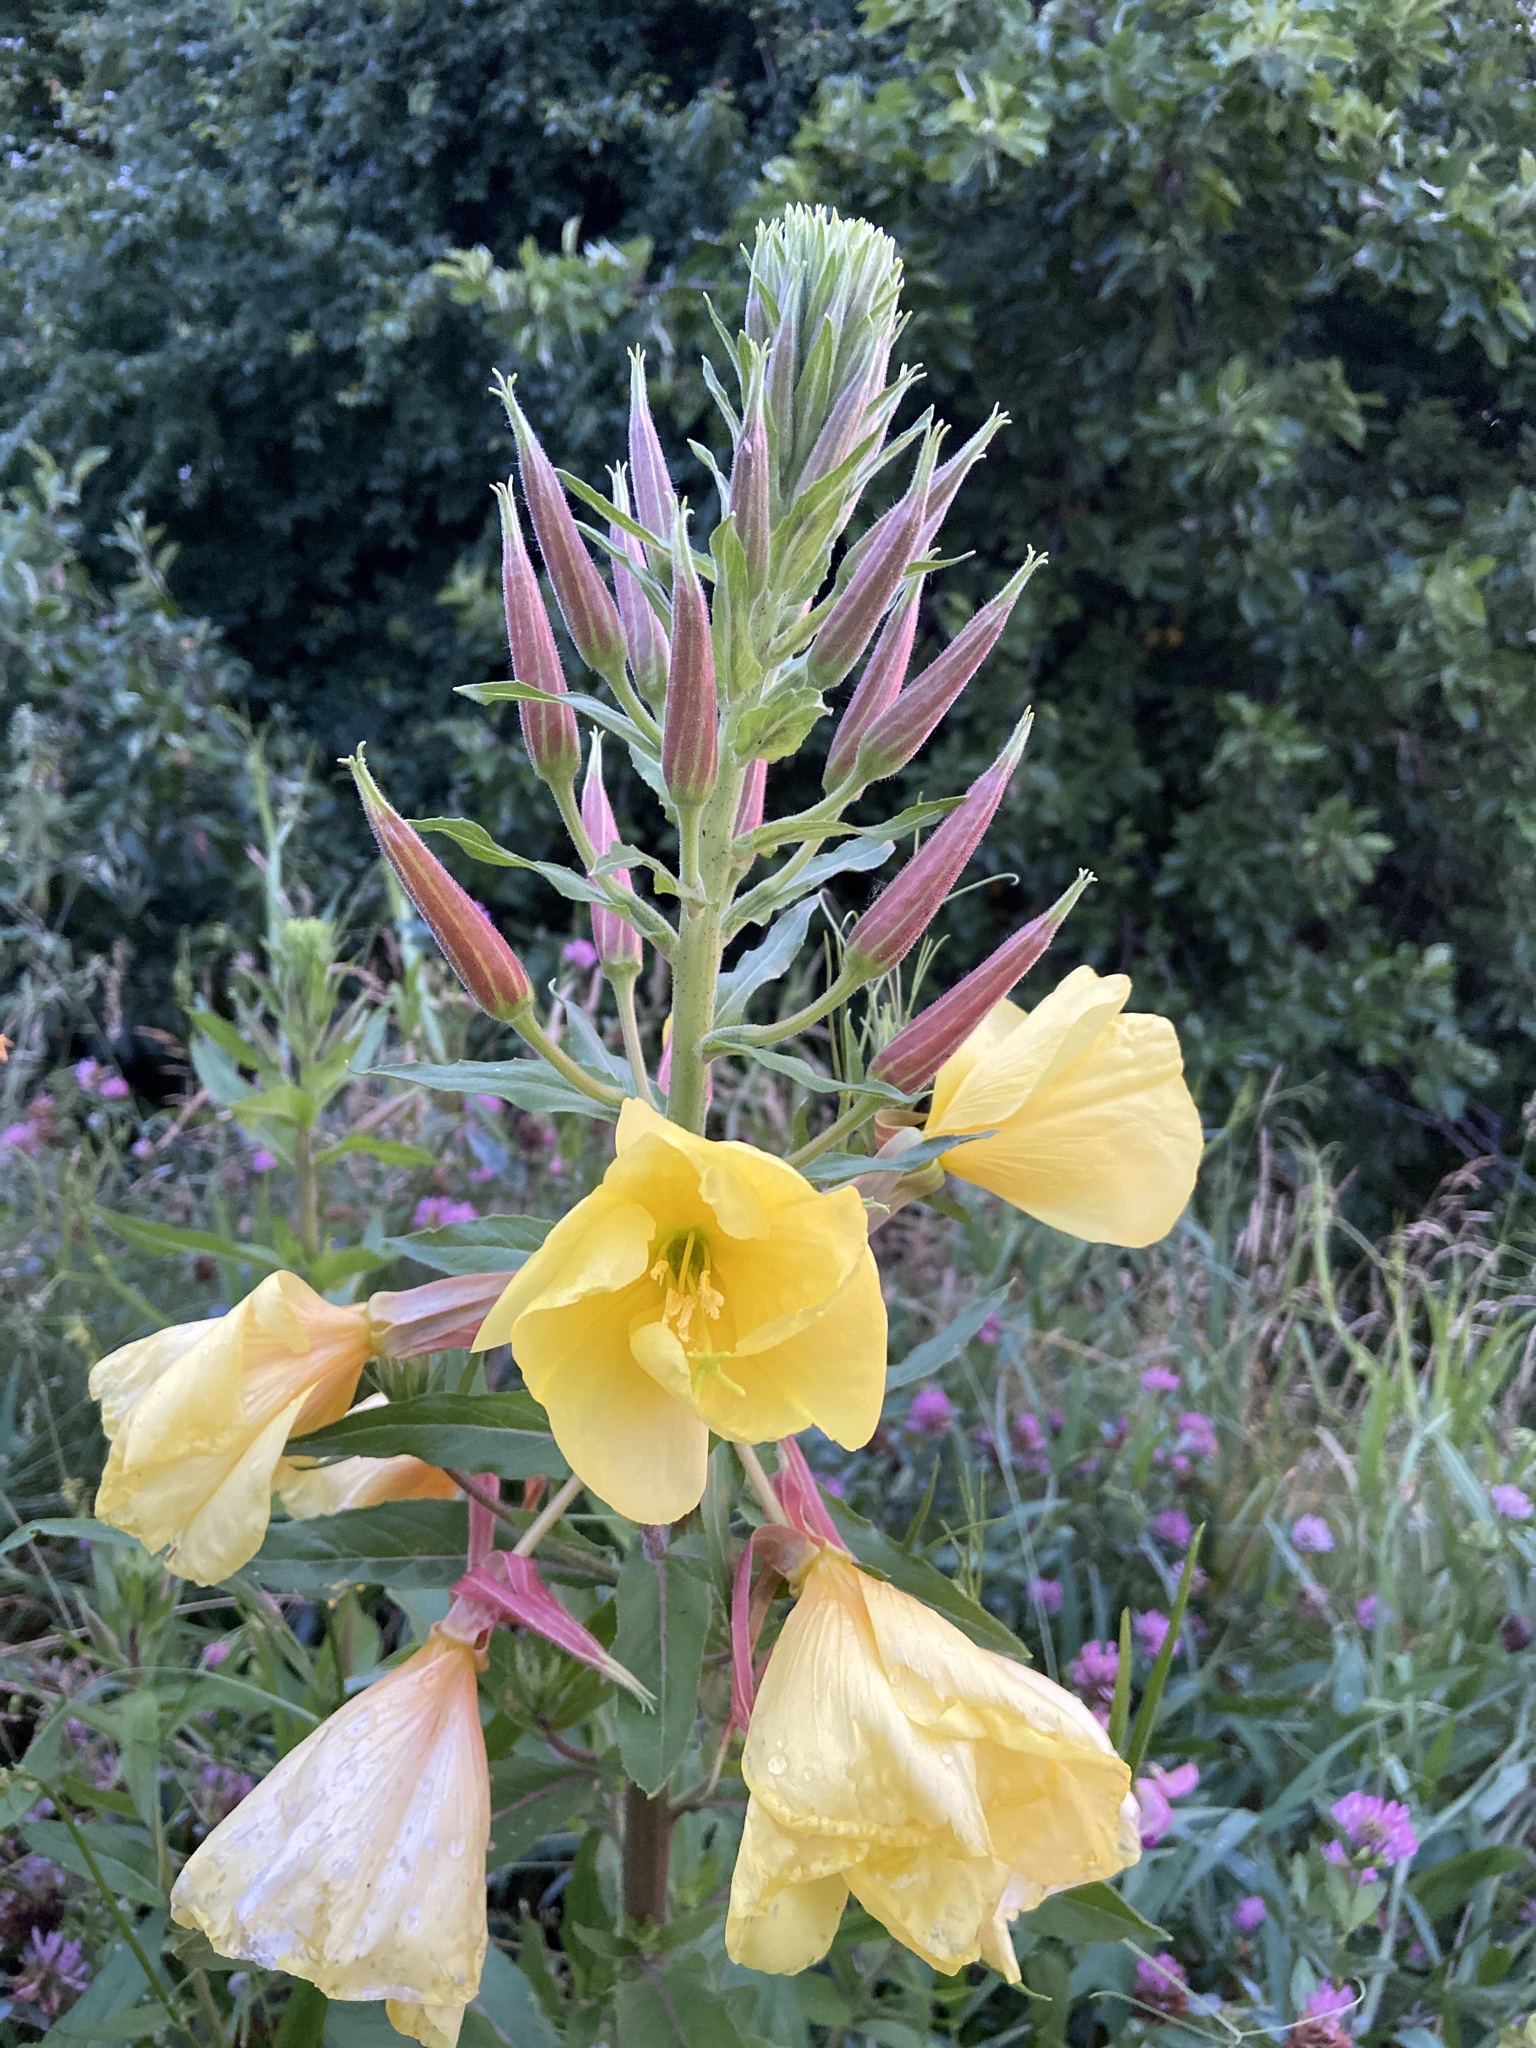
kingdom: Plantae
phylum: Tracheophyta
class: Magnoliopsida
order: Myrtales
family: Onagraceae
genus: Oenothera
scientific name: Oenothera glazioviana
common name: Large-flowered evening-primrose
